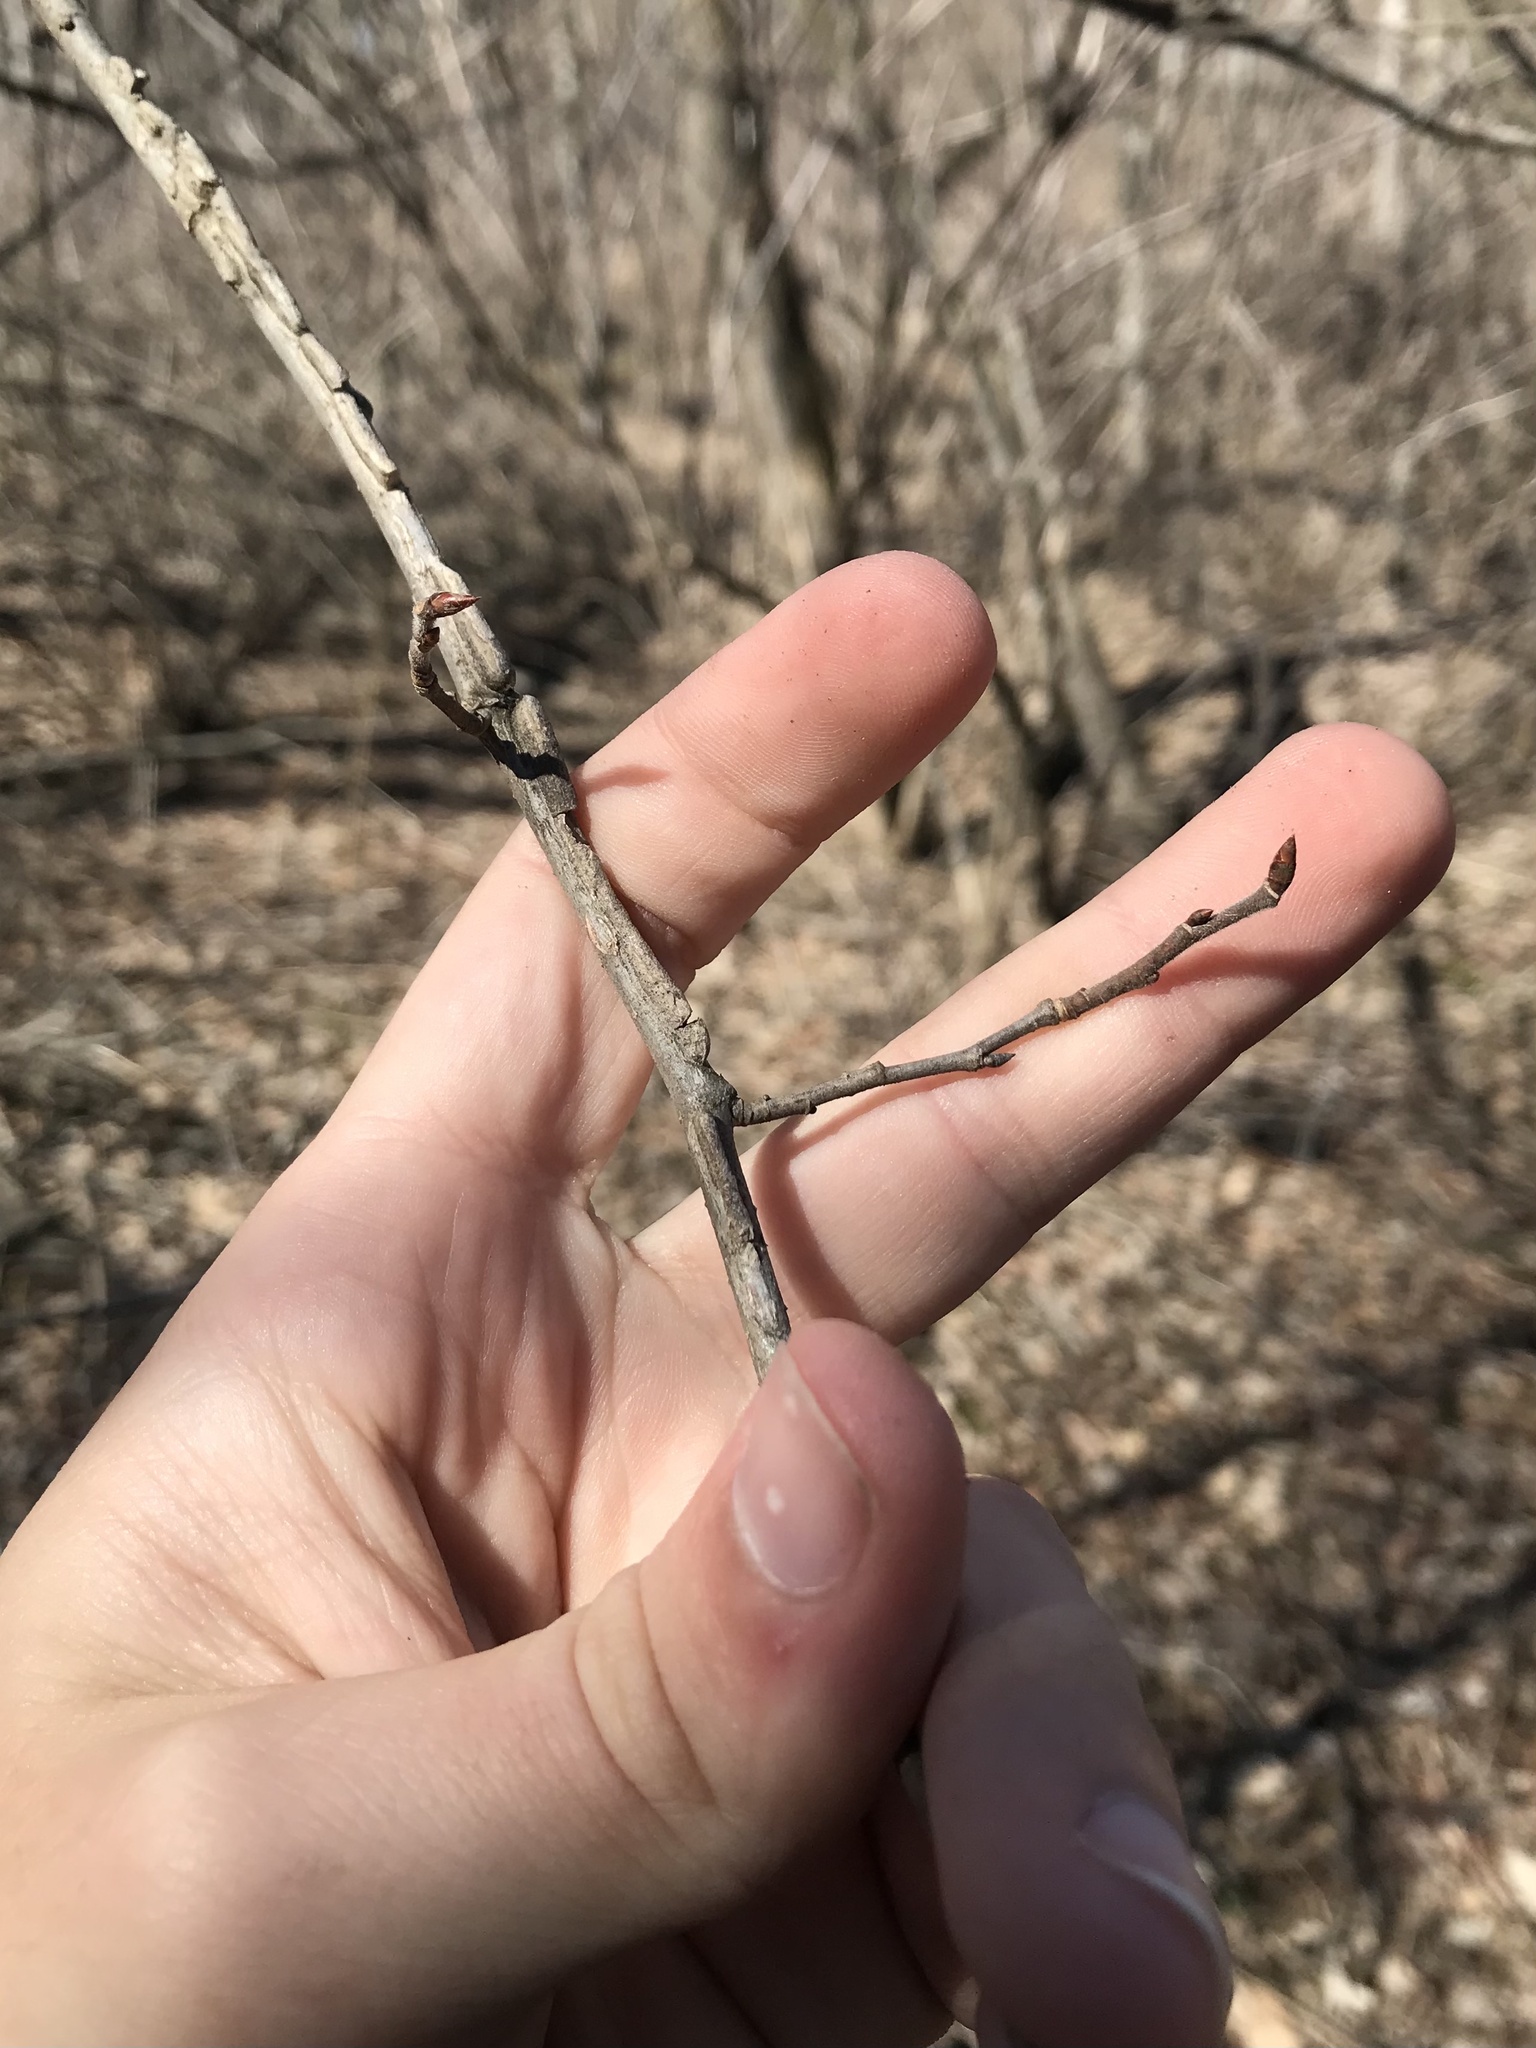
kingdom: Plantae
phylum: Tracheophyta
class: Magnoliopsida
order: Rosales
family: Ulmaceae
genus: Ulmus
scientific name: Ulmus thomasii
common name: Rock elm
